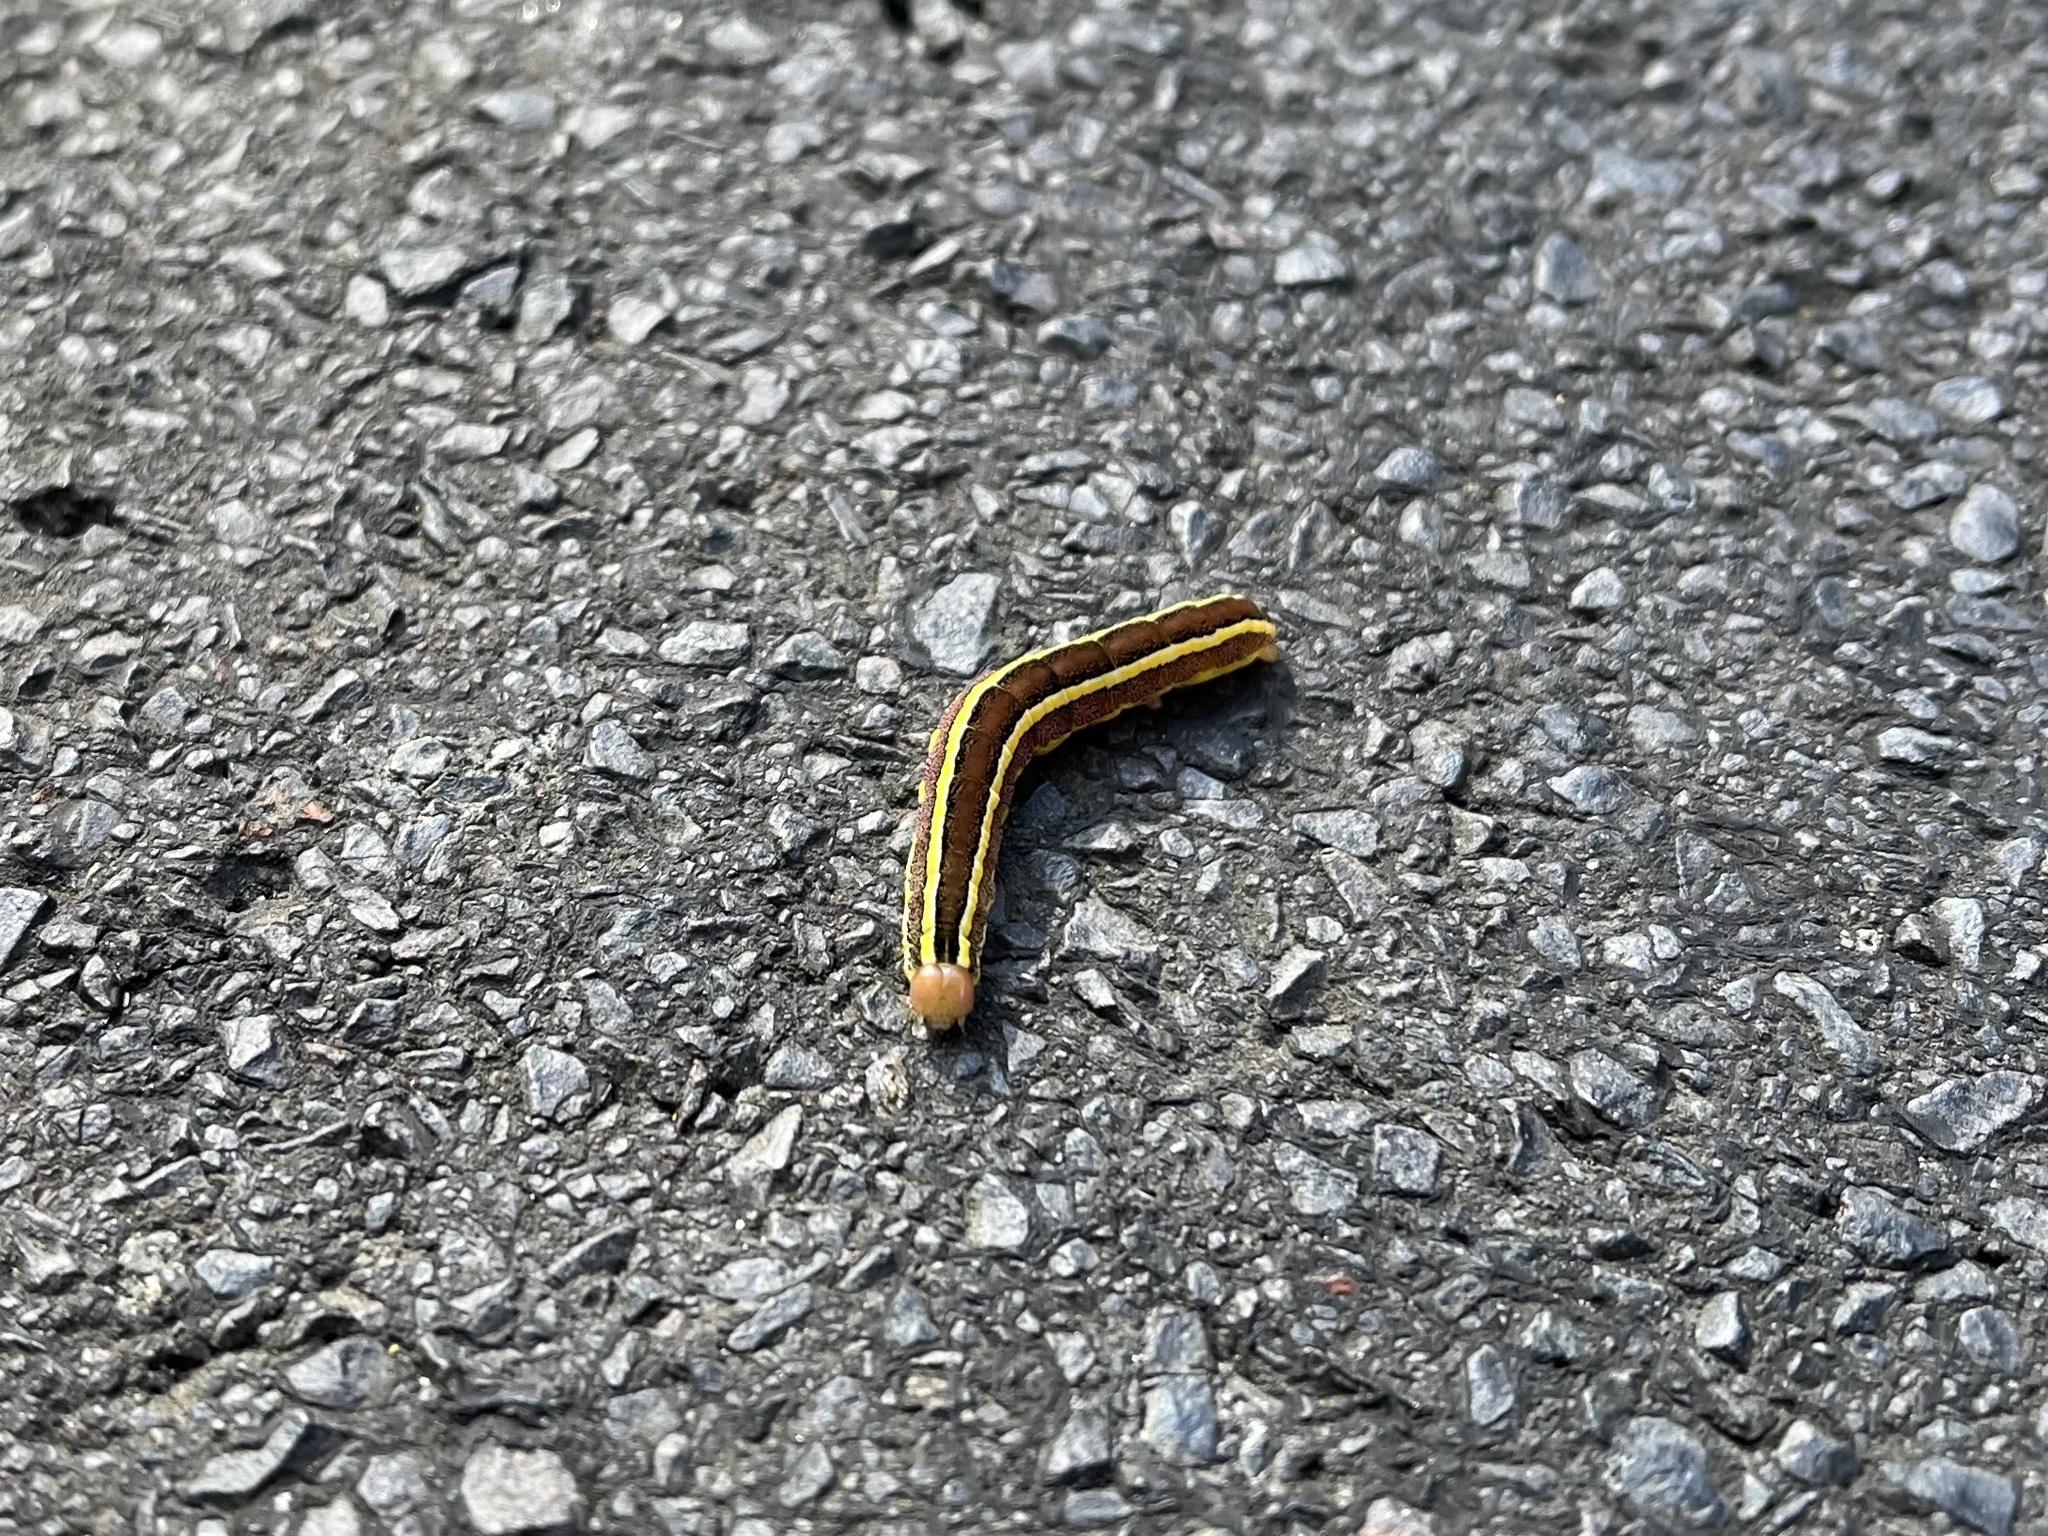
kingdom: Animalia
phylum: Arthropoda
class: Insecta
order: Lepidoptera
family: Noctuidae
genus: Ceramica
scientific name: Ceramica pisi
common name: Broom moth
